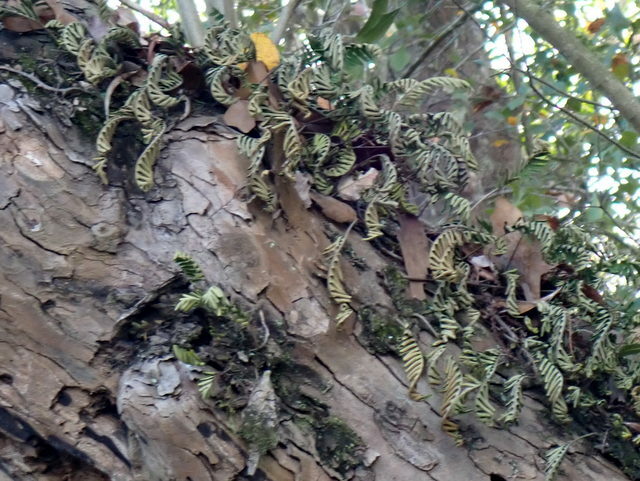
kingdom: Plantae
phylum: Tracheophyta
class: Polypodiopsida
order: Polypodiales
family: Polypodiaceae
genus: Pleopeltis
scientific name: Pleopeltis michauxiana
